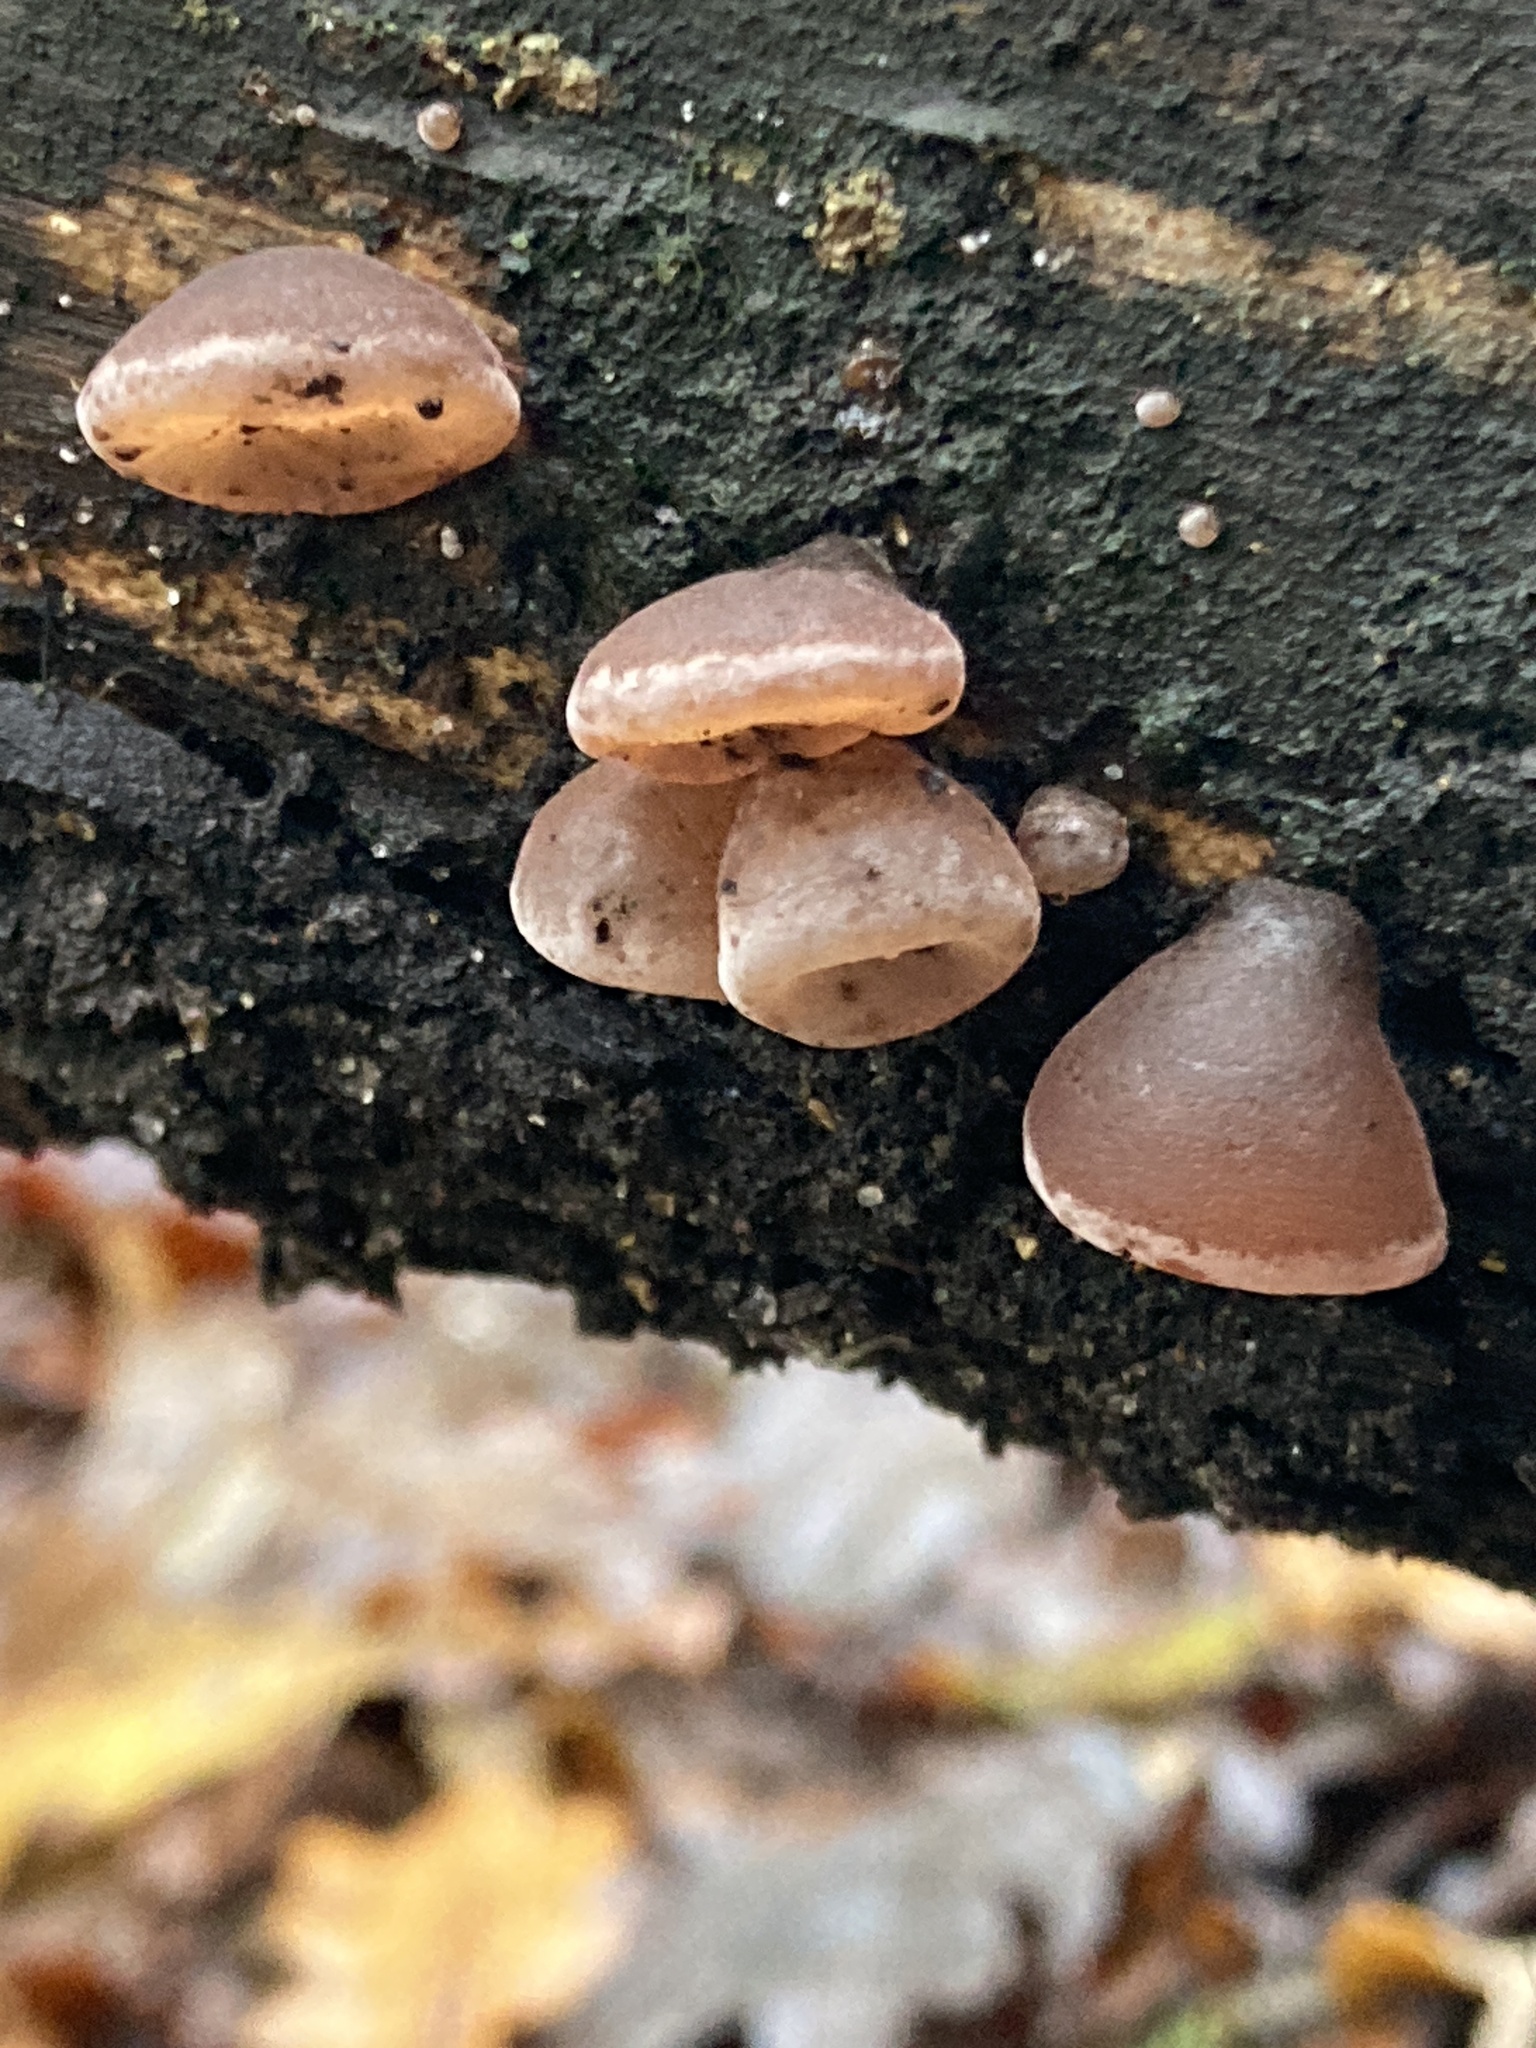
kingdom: Fungi
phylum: Basidiomycota
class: Agaricomycetes
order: Auriculariales
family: Auriculariaceae
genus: Auricularia
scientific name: Auricularia auricula-judae
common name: Jelly ear
